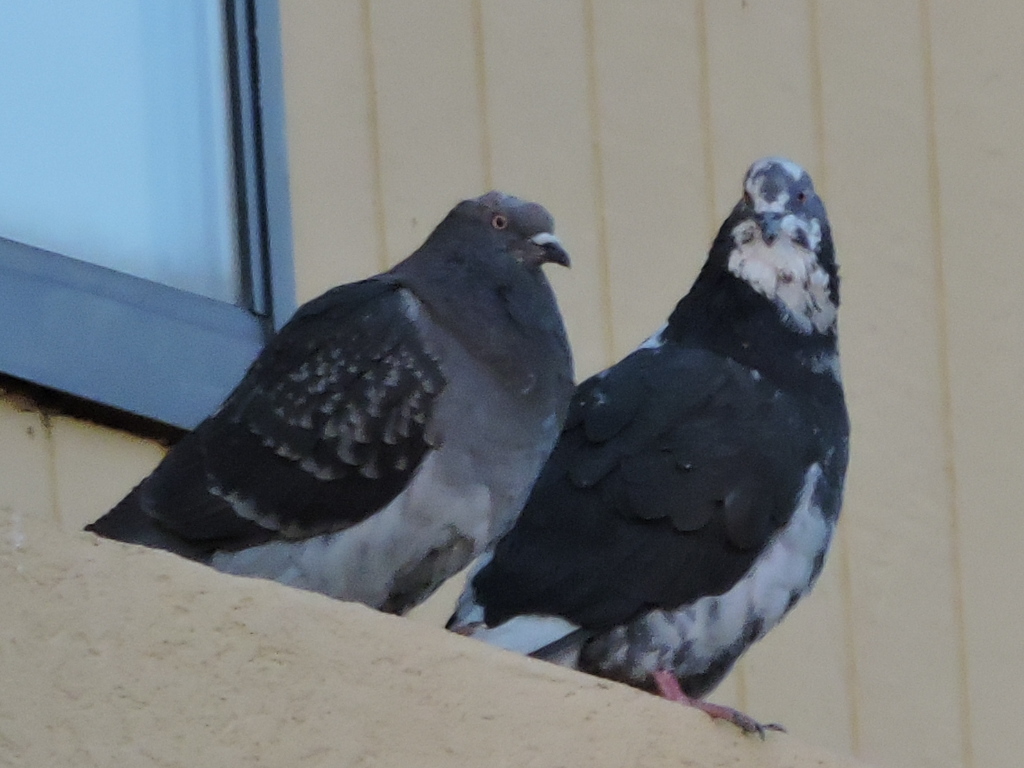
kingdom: Animalia
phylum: Chordata
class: Aves
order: Columbiformes
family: Columbidae
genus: Columba
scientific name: Columba livia
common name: Rock pigeon
